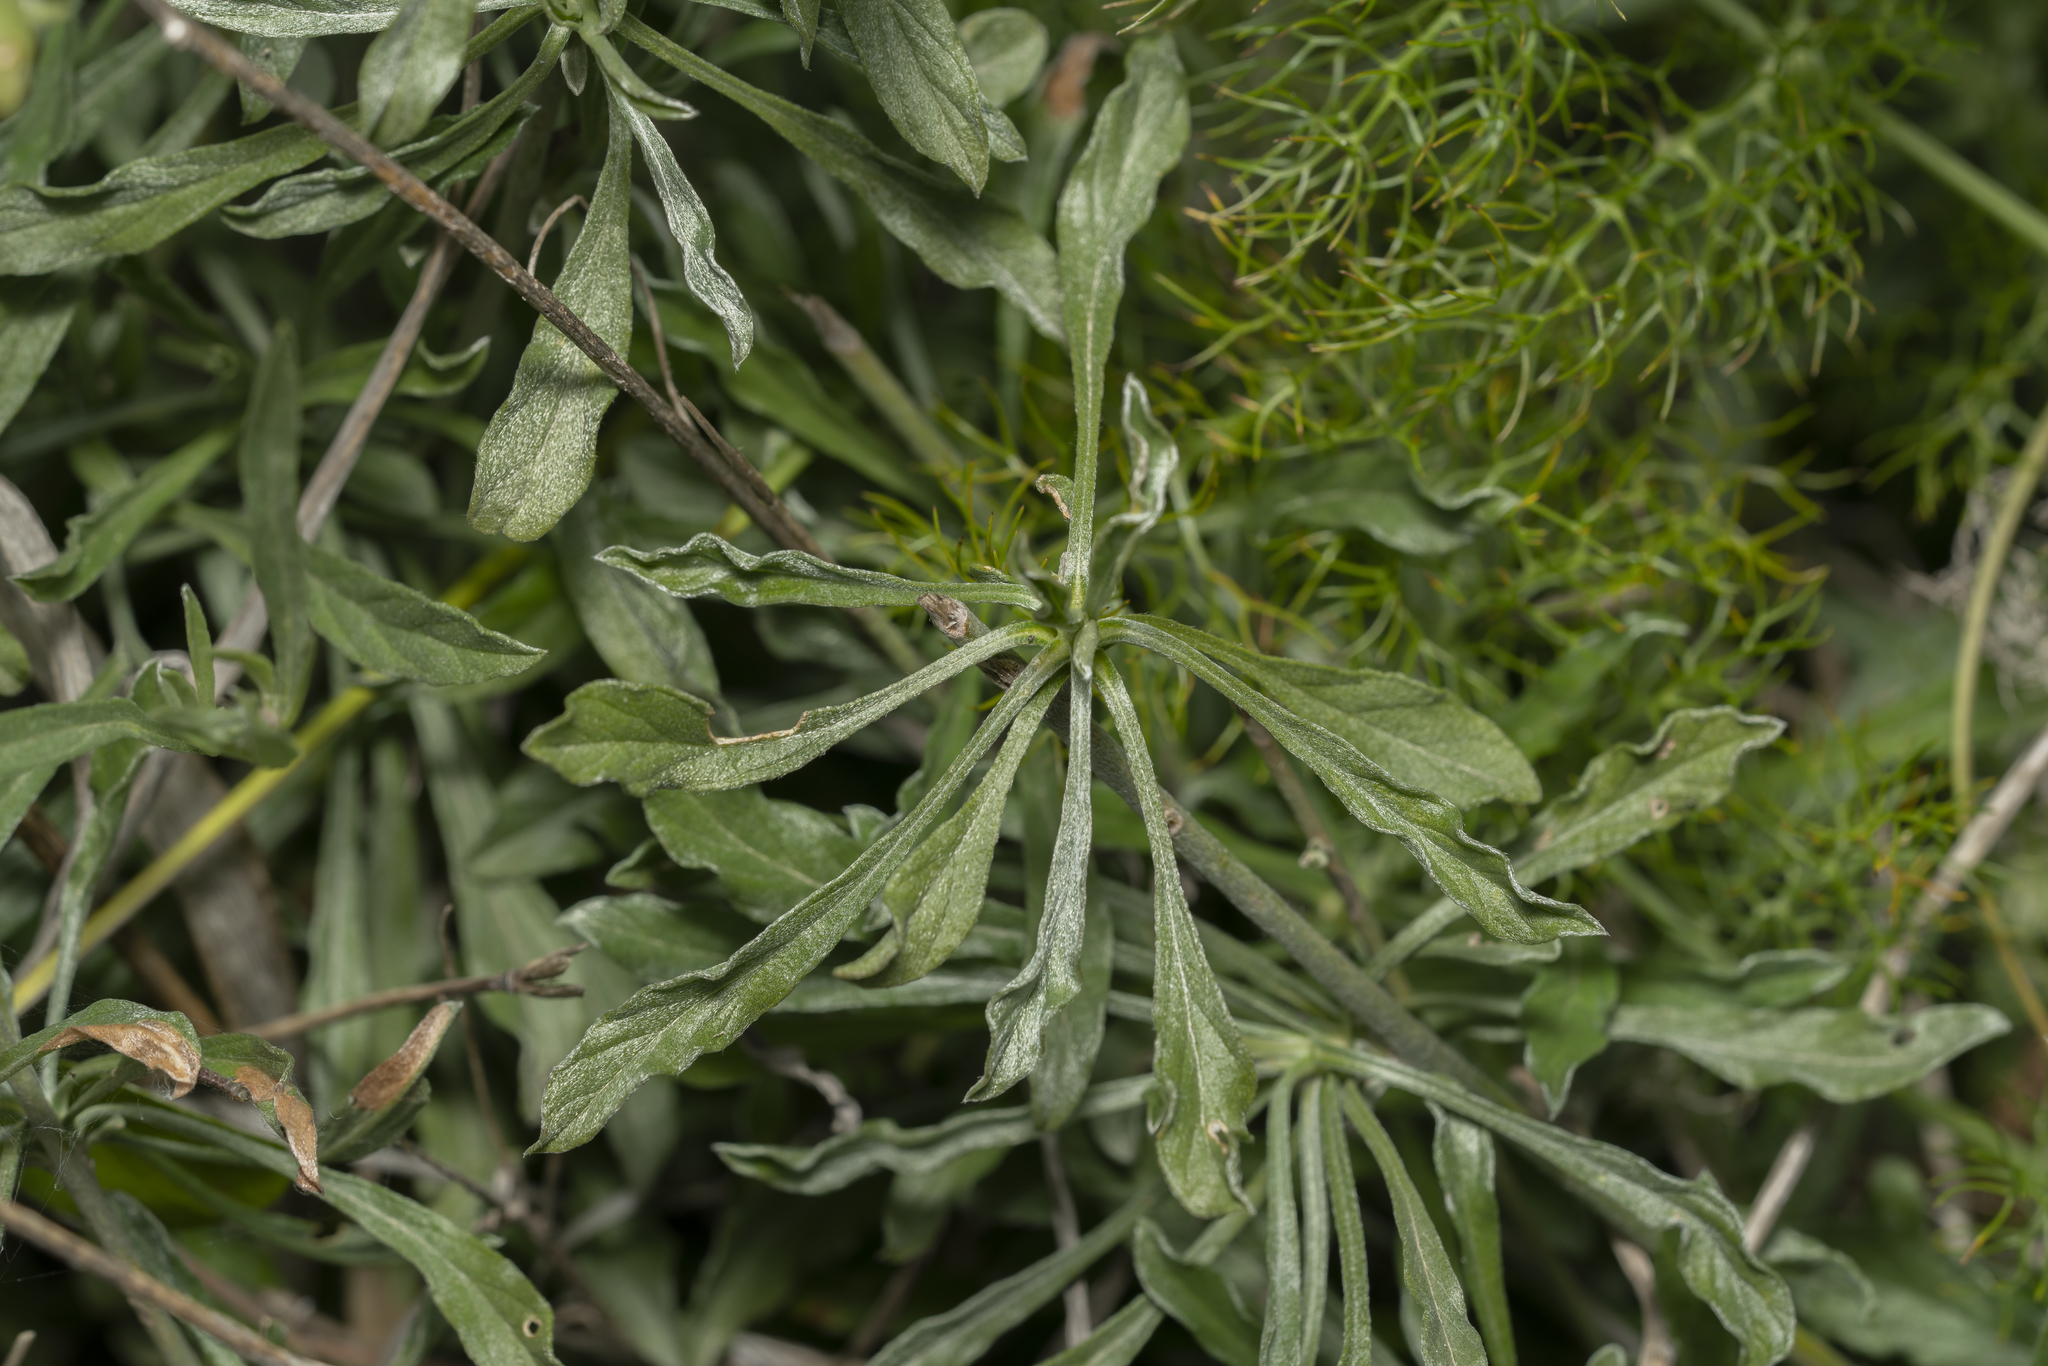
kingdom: Plantae
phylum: Tracheophyta
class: Magnoliopsida
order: Solanales
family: Convolvulaceae
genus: Convolvulus
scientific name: Convolvulus oleifolius
